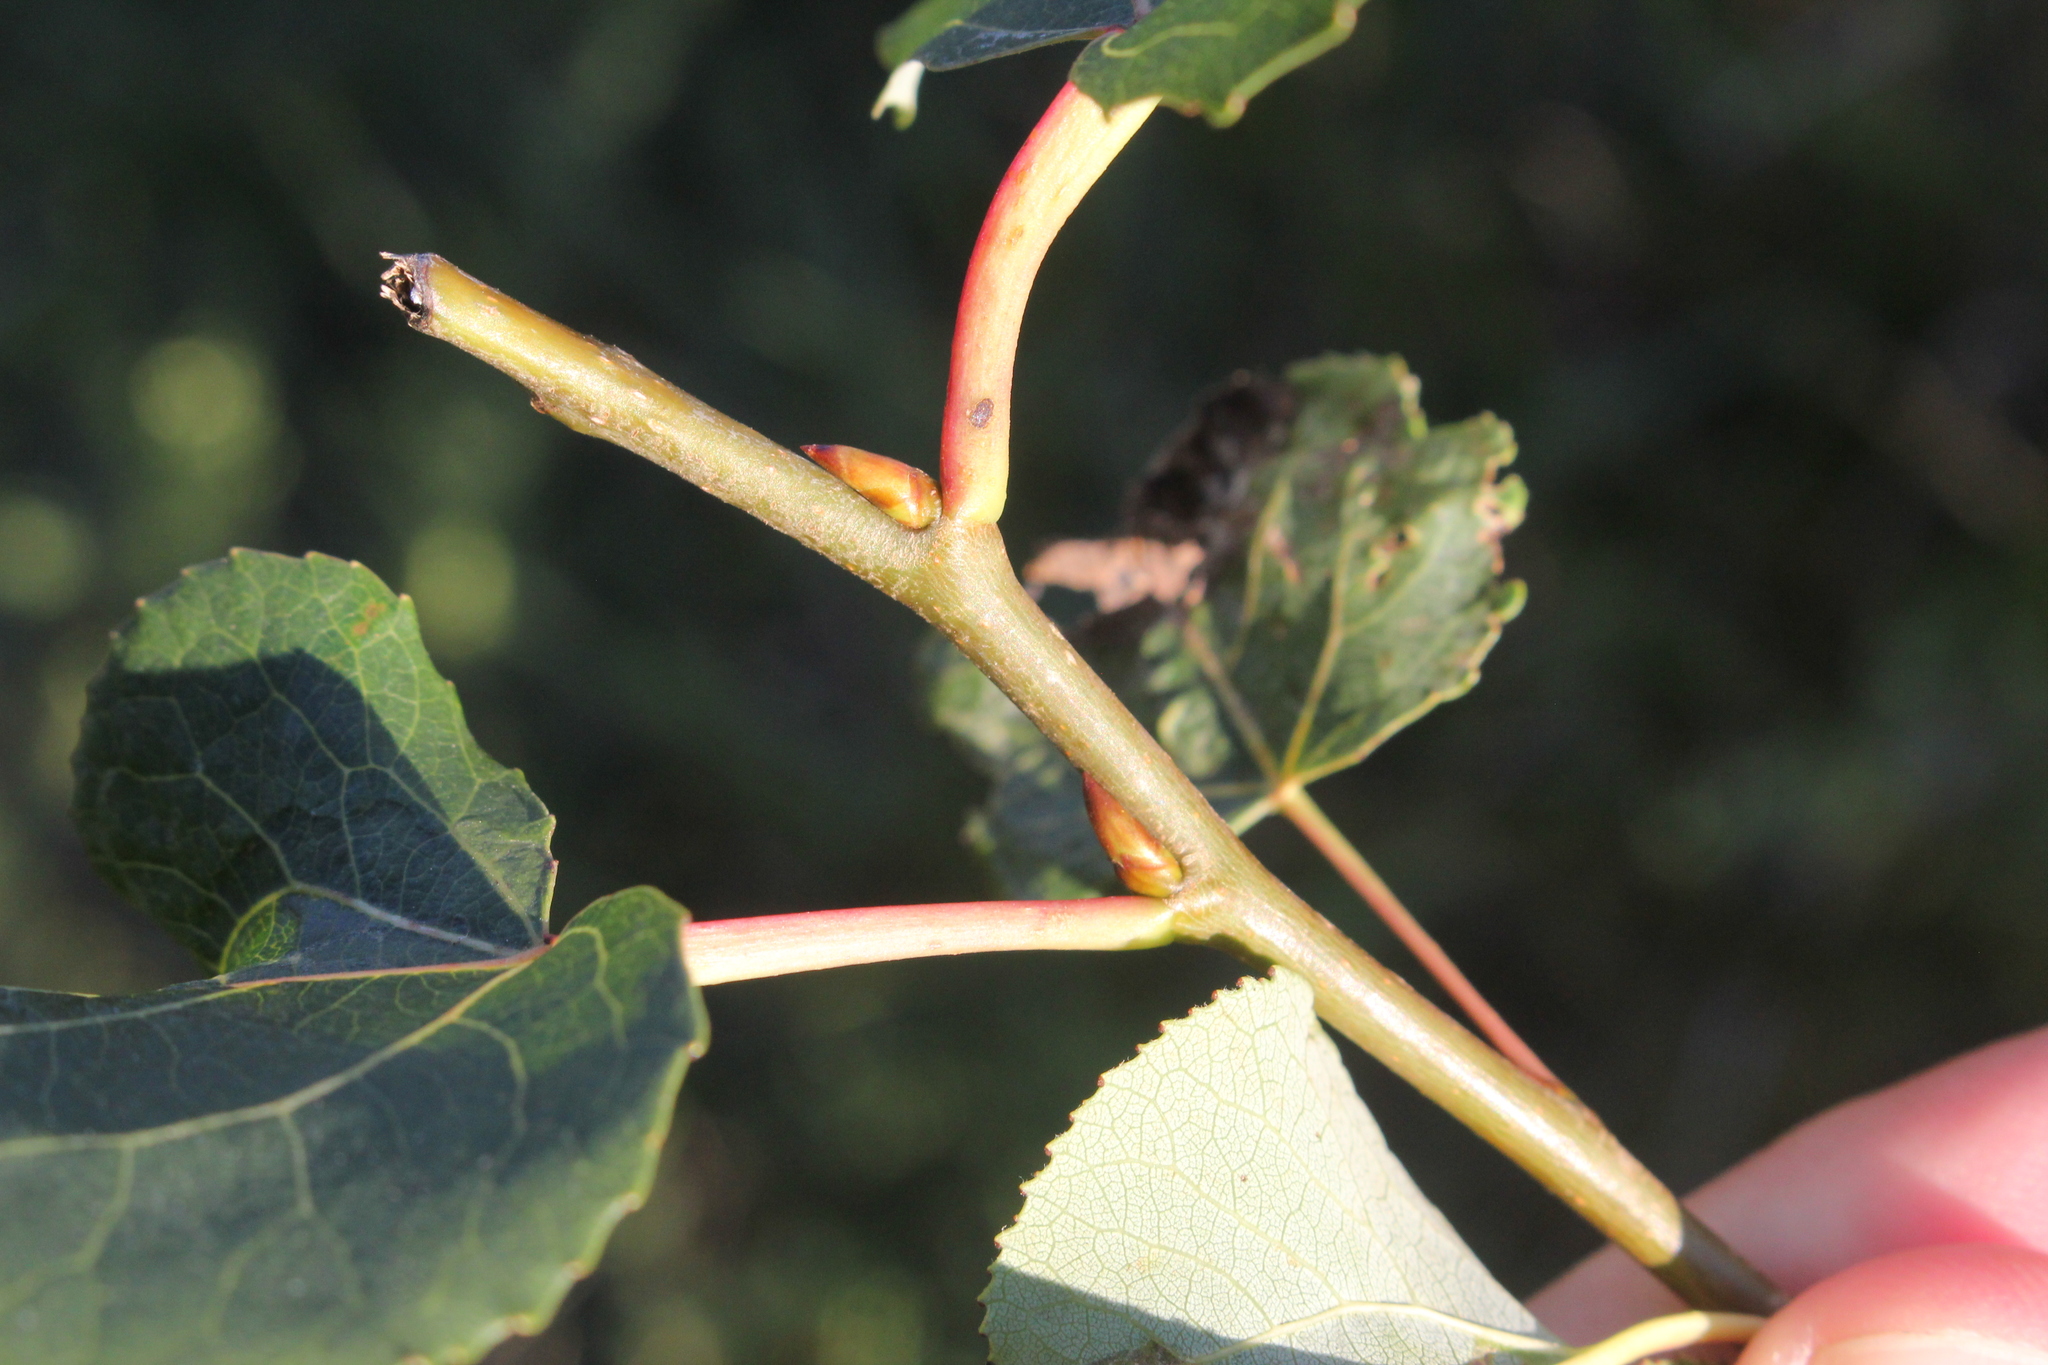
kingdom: Plantae
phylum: Tracheophyta
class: Magnoliopsida
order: Malpighiales
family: Salicaceae
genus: Populus
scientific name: Populus tremuloides
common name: Quaking aspen
